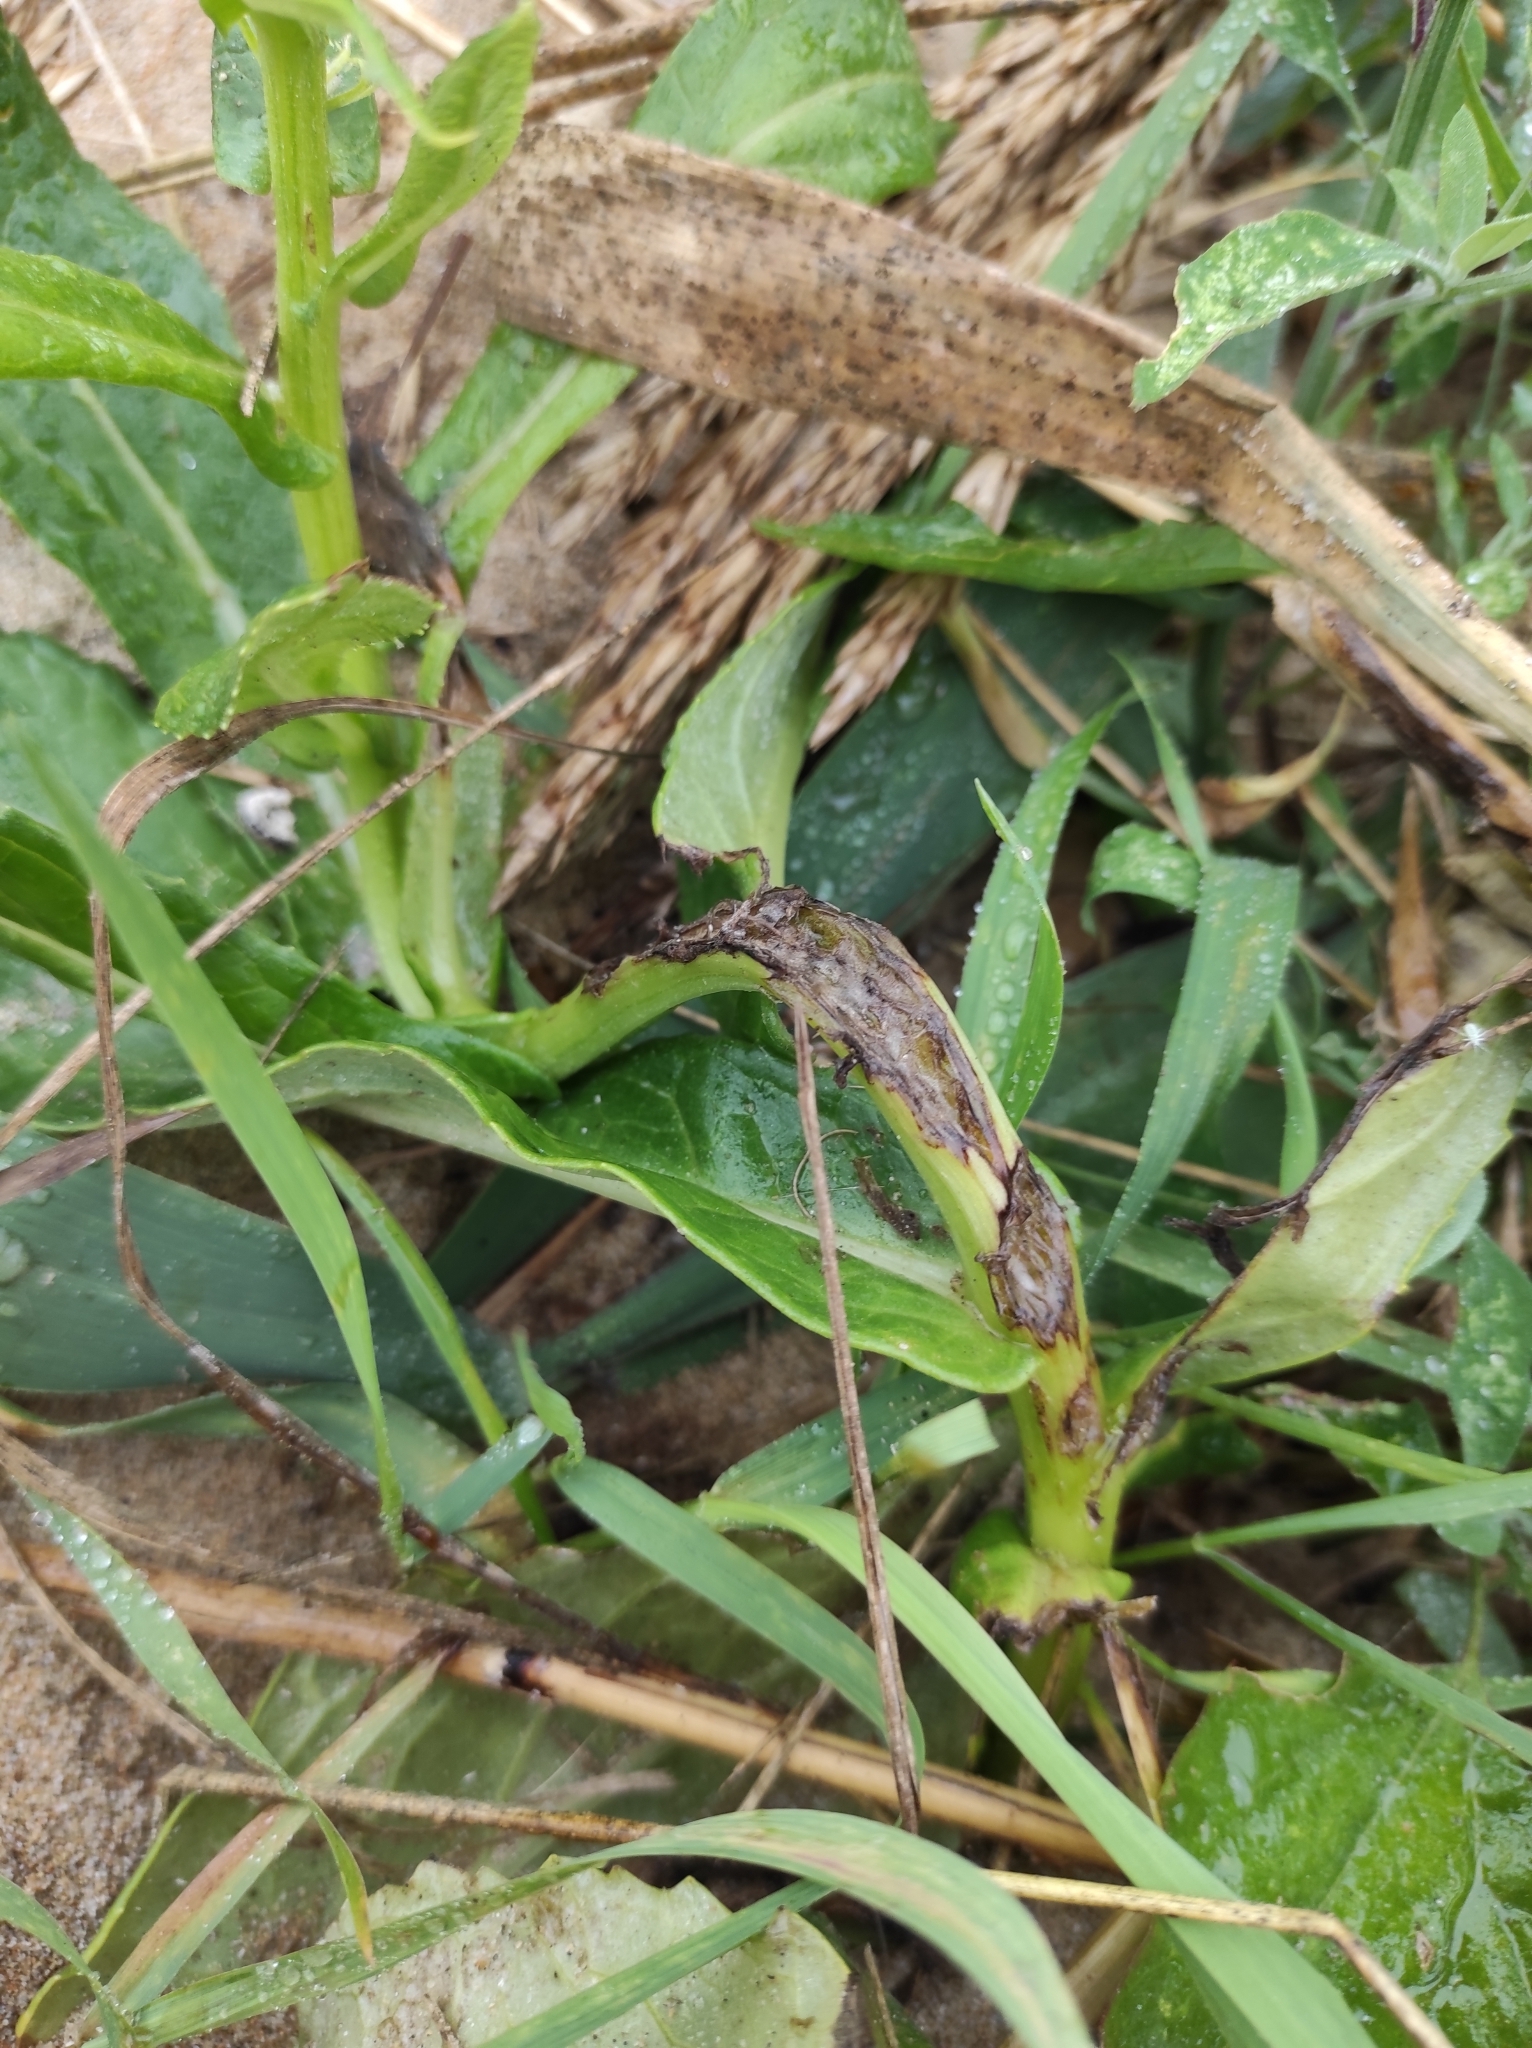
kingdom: Plantae
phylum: Tracheophyta
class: Magnoliopsida
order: Asterales
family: Asteraceae
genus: Jacobaea
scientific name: Jacobaea pseudoarnica
